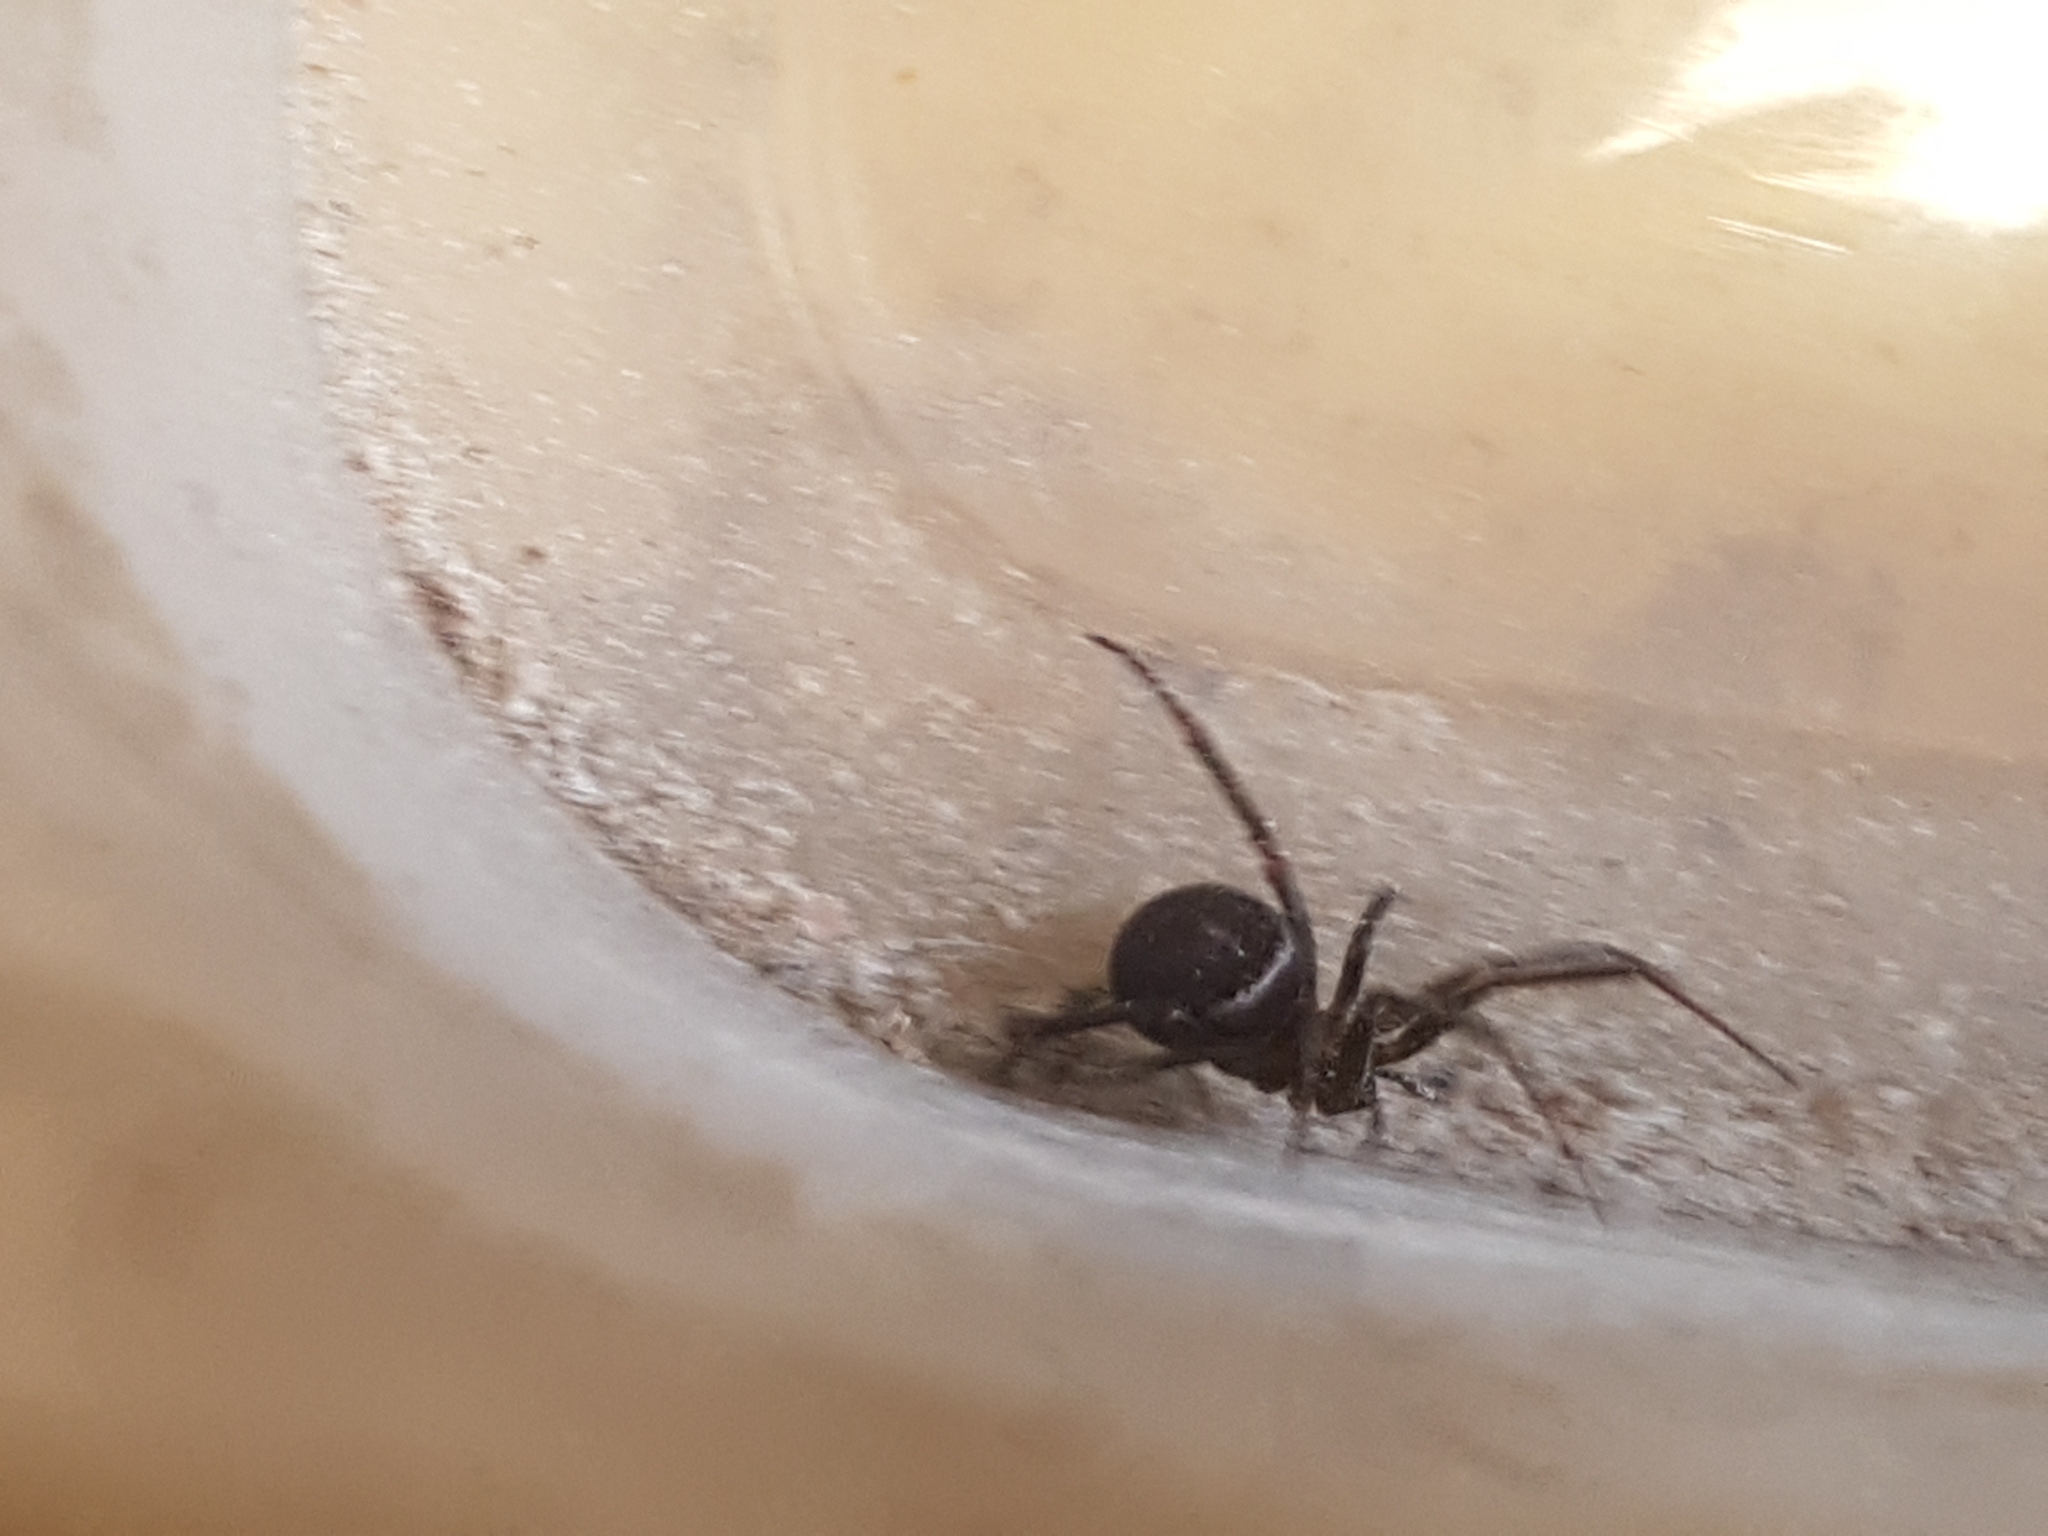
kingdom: Animalia
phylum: Arthropoda
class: Arachnida
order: Araneae
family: Theridiidae
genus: Steatoda
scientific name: Steatoda grossa
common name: False black widow
